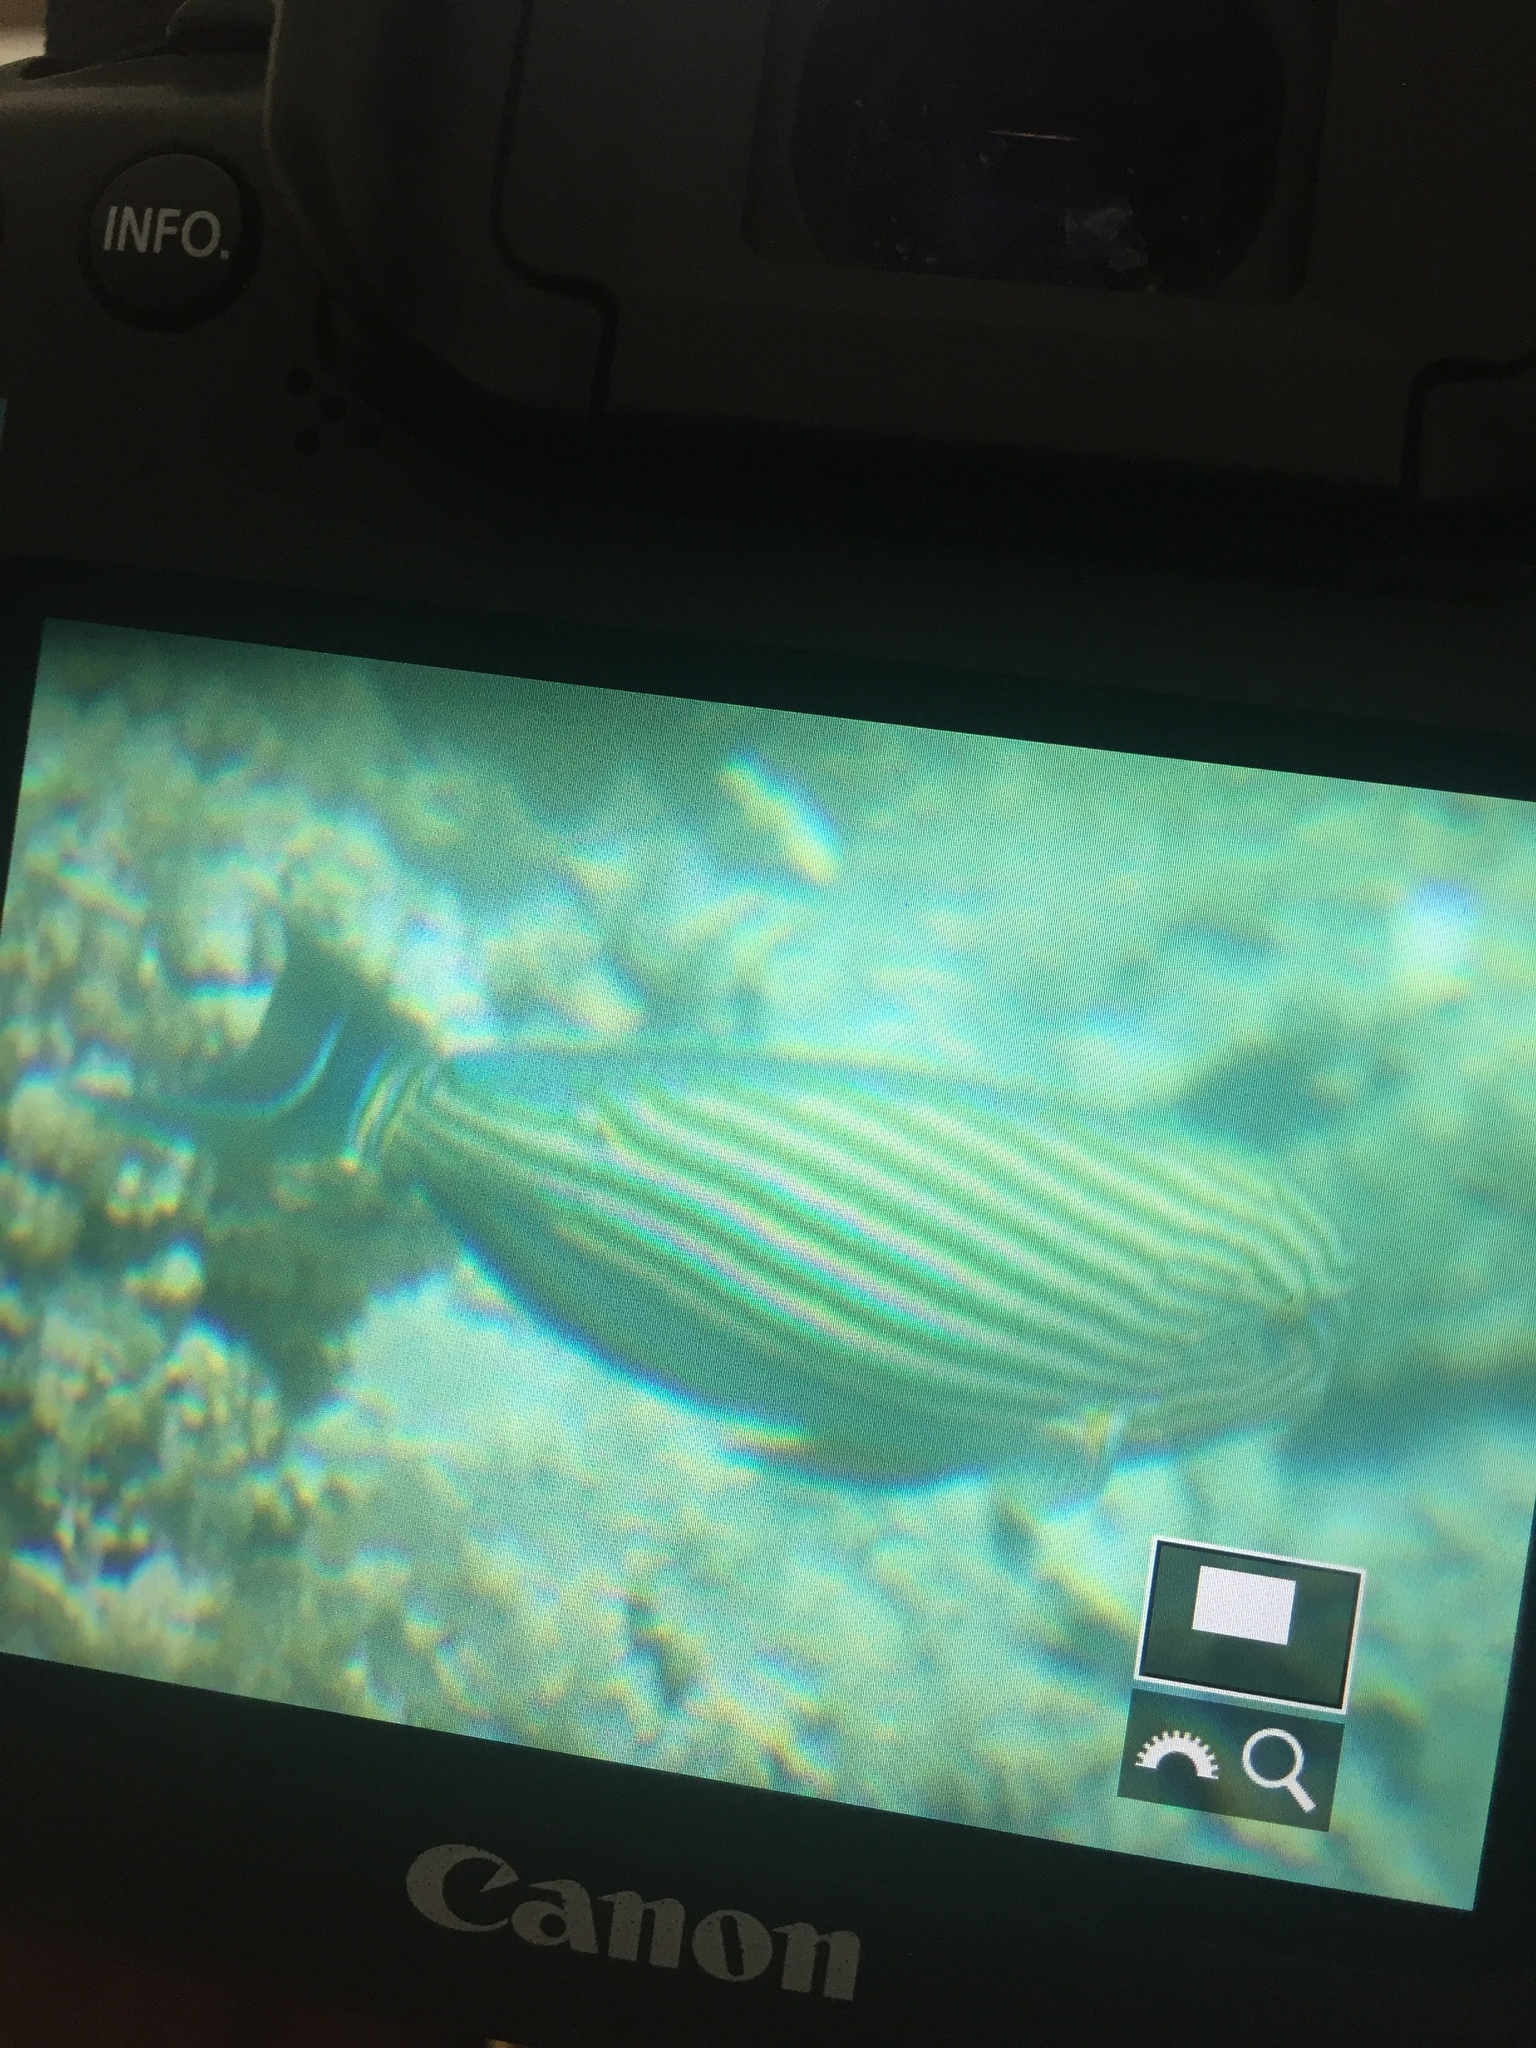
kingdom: Animalia
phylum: Chordata
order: Perciformes
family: Acanthuridae
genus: Acanthurus
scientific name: Acanthurus lineatus
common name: Striped surgeonfish
